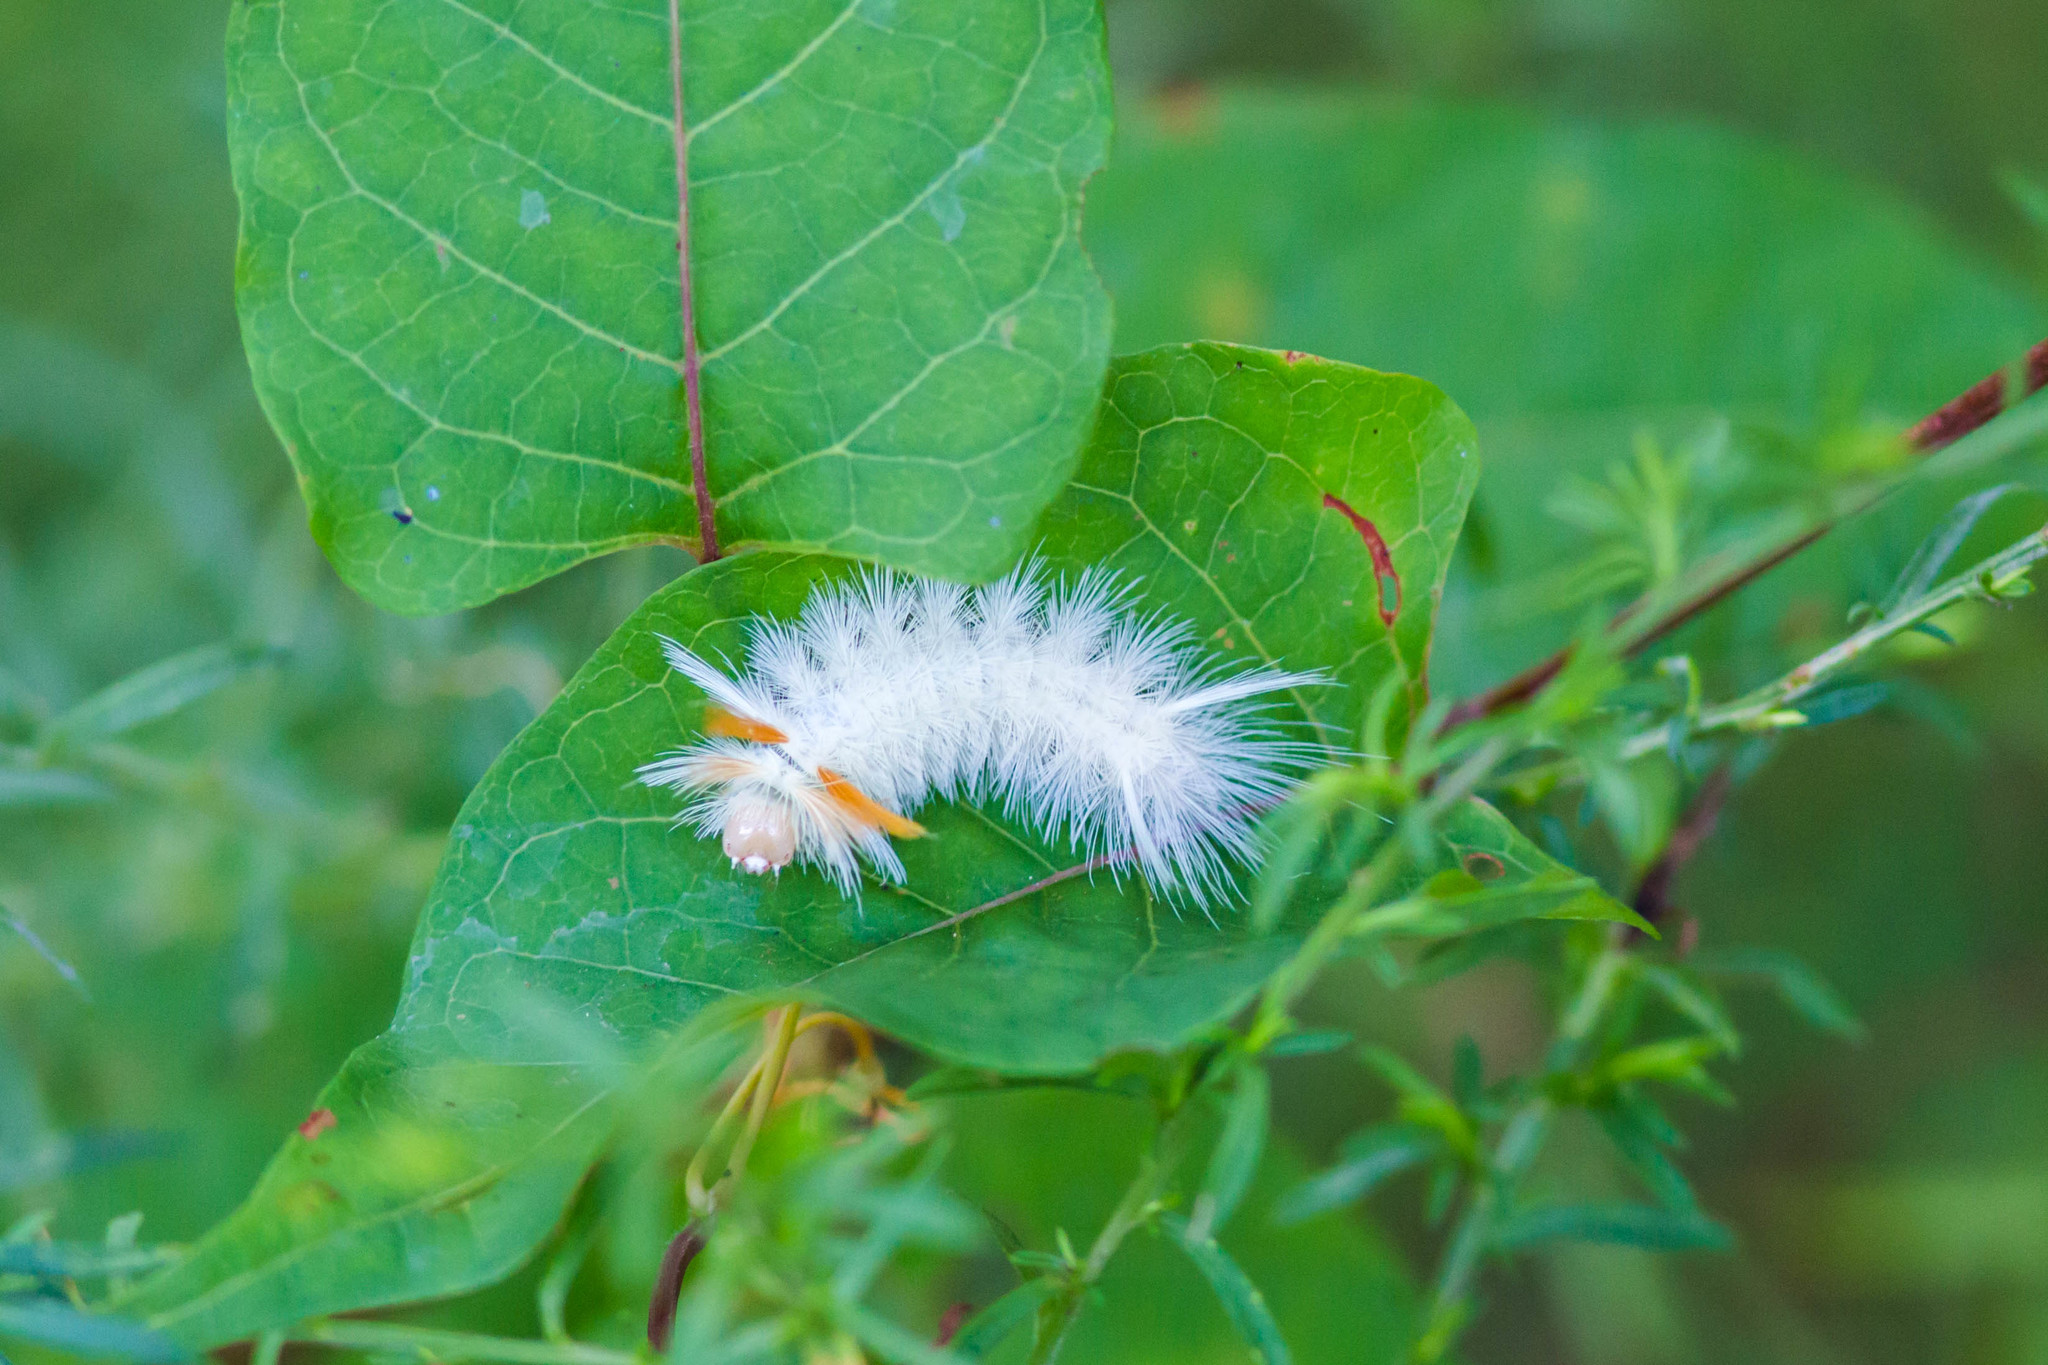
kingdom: Animalia
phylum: Arthropoda
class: Insecta
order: Lepidoptera
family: Erebidae
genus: Halysidota
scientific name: Halysidota harrisii
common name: Sycamore tussock moth
